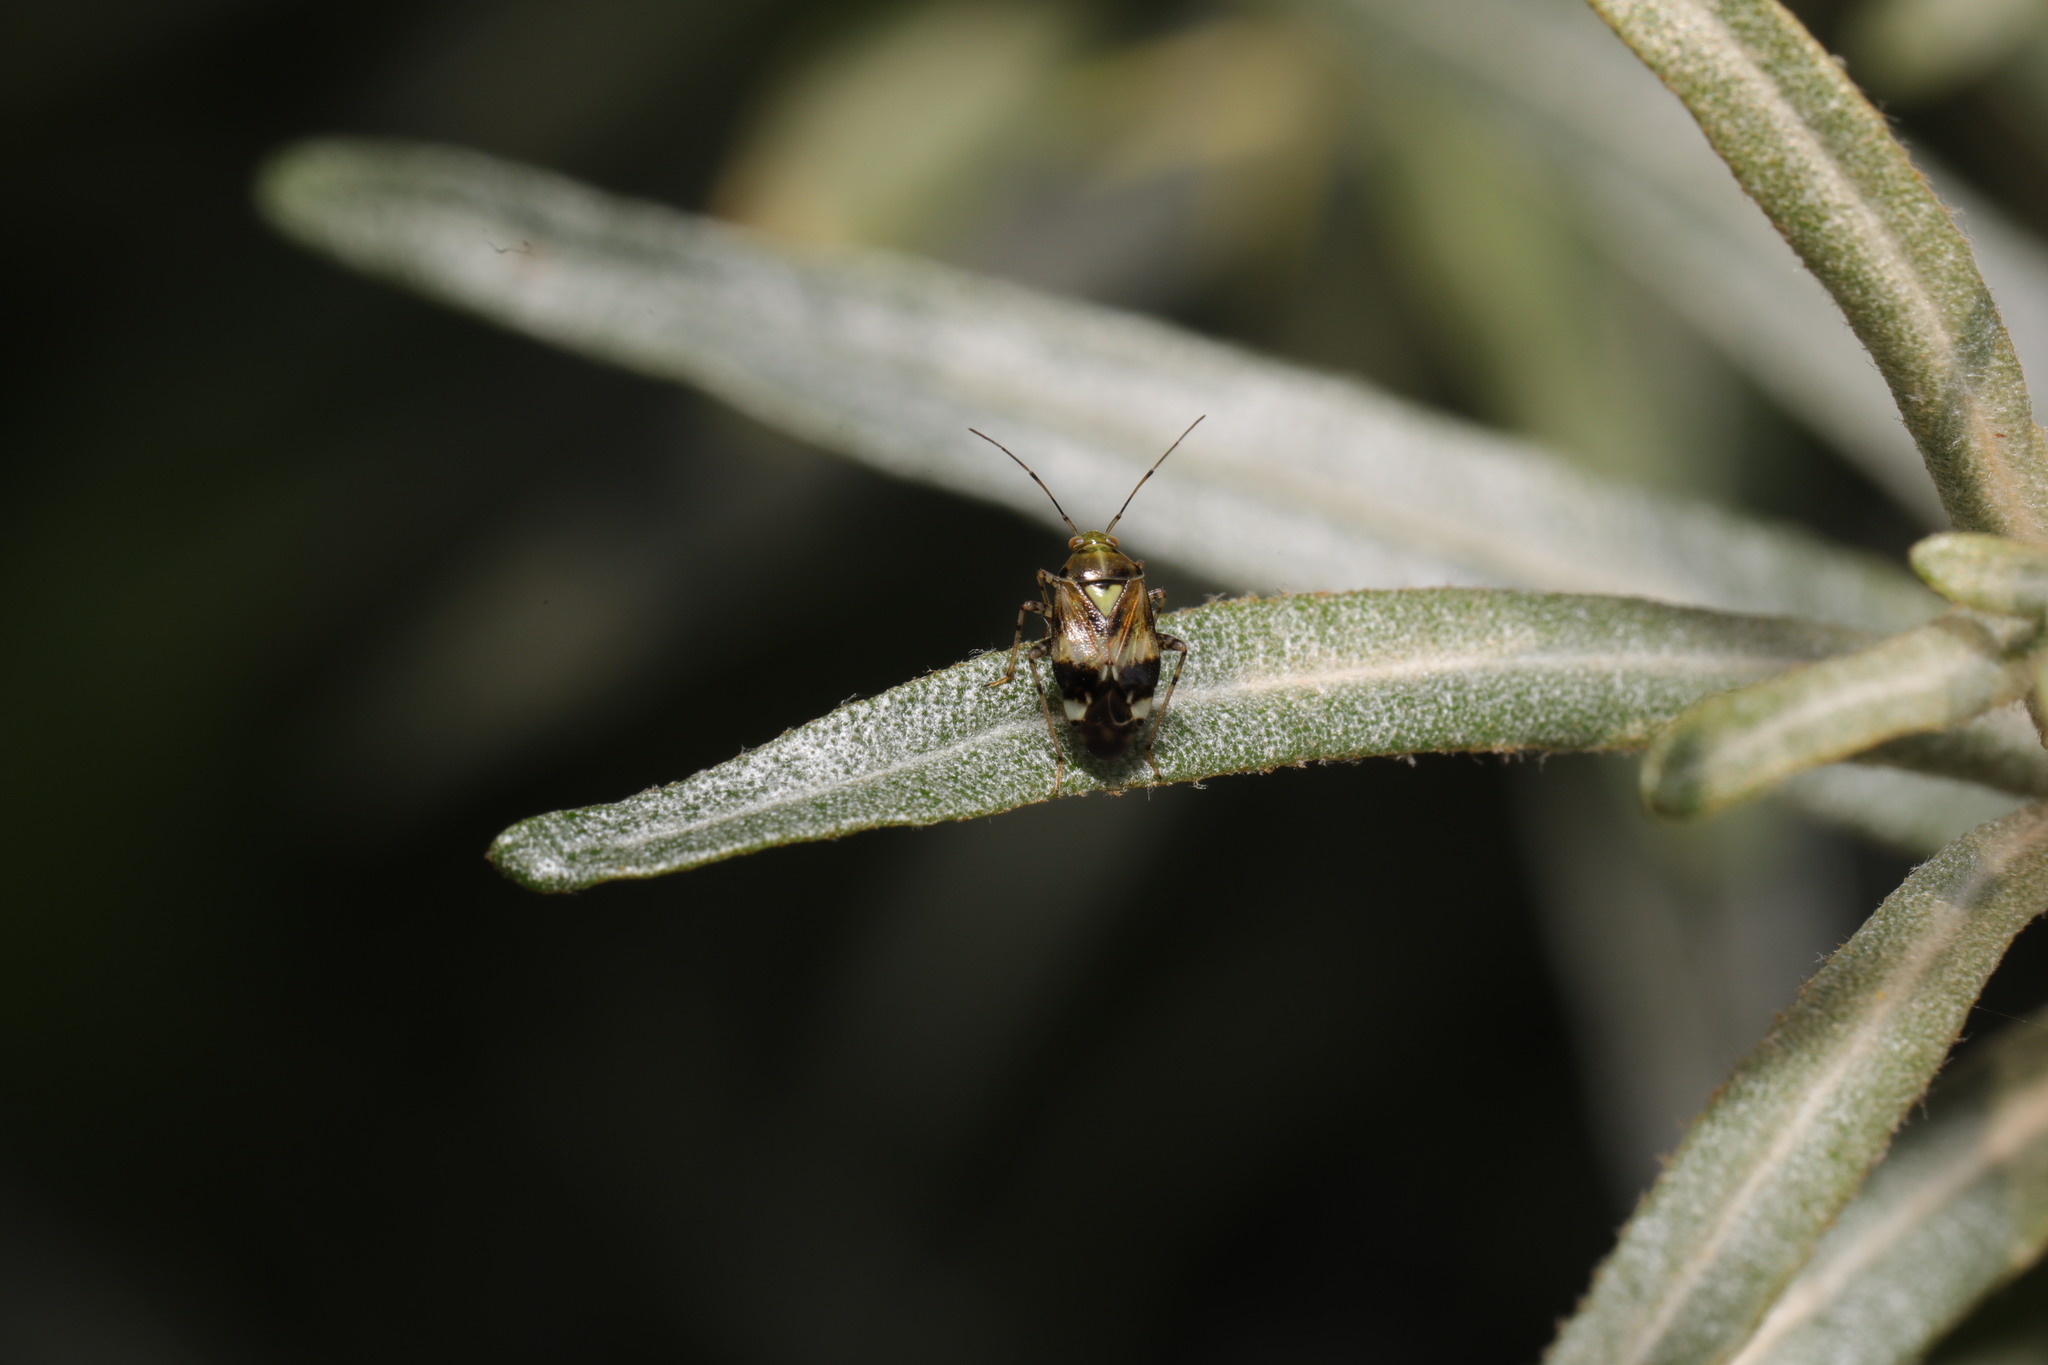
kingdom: Animalia
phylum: Arthropoda
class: Insecta
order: Hemiptera
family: Miridae
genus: Liocoris
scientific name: Liocoris tripustulatus
